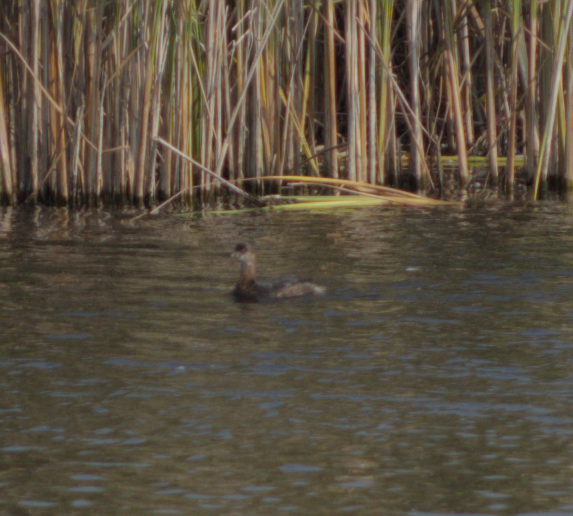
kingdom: Animalia
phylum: Chordata
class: Aves
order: Podicipediformes
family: Podicipedidae
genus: Podilymbus
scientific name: Podilymbus podiceps
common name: Pied-billed grebe
